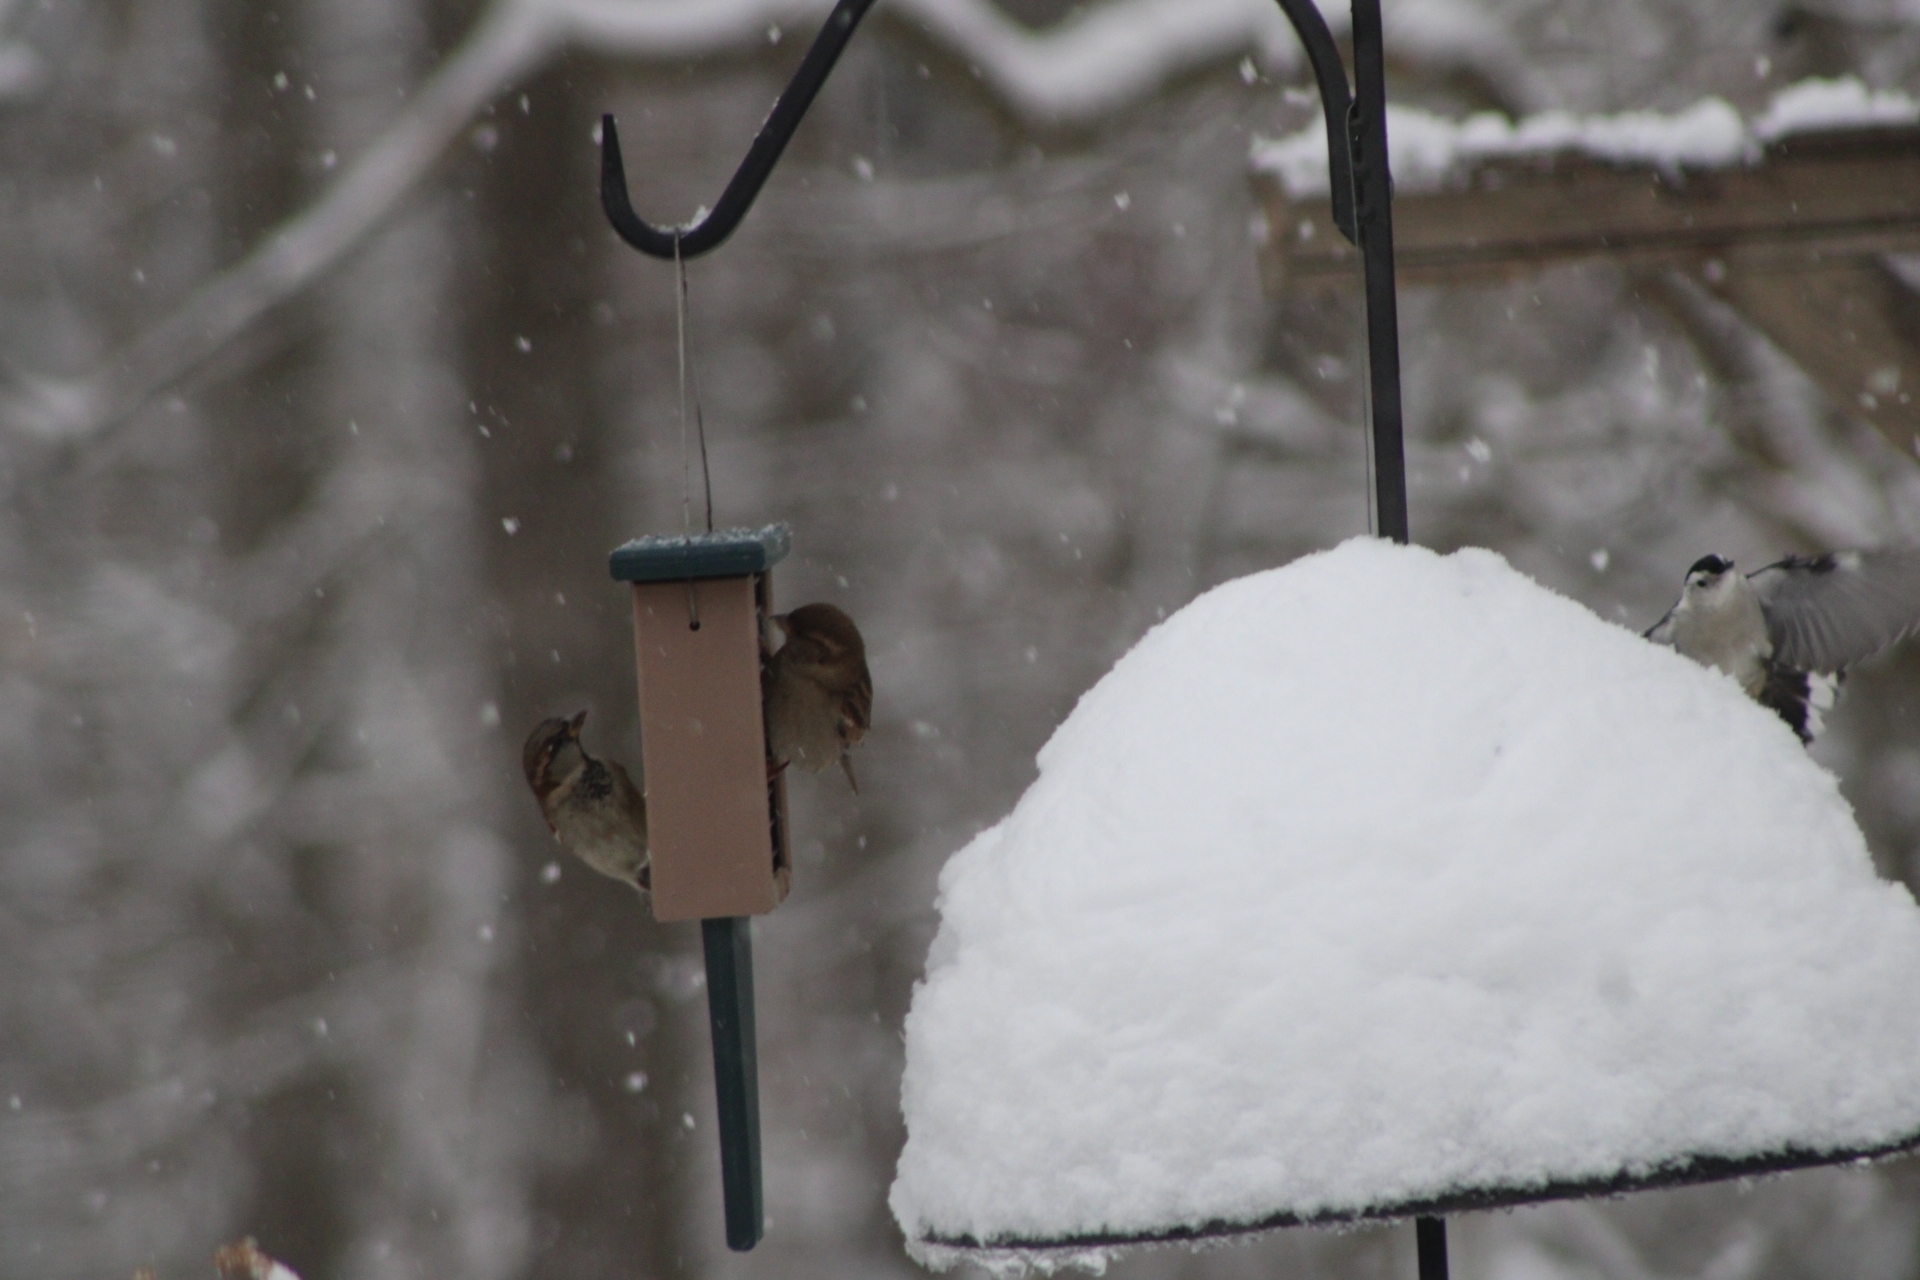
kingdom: Animalia
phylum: Chordata
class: Aves
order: Passeriformes
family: Passeridae
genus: Passer
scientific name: Passer domesticus
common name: House sparrow
